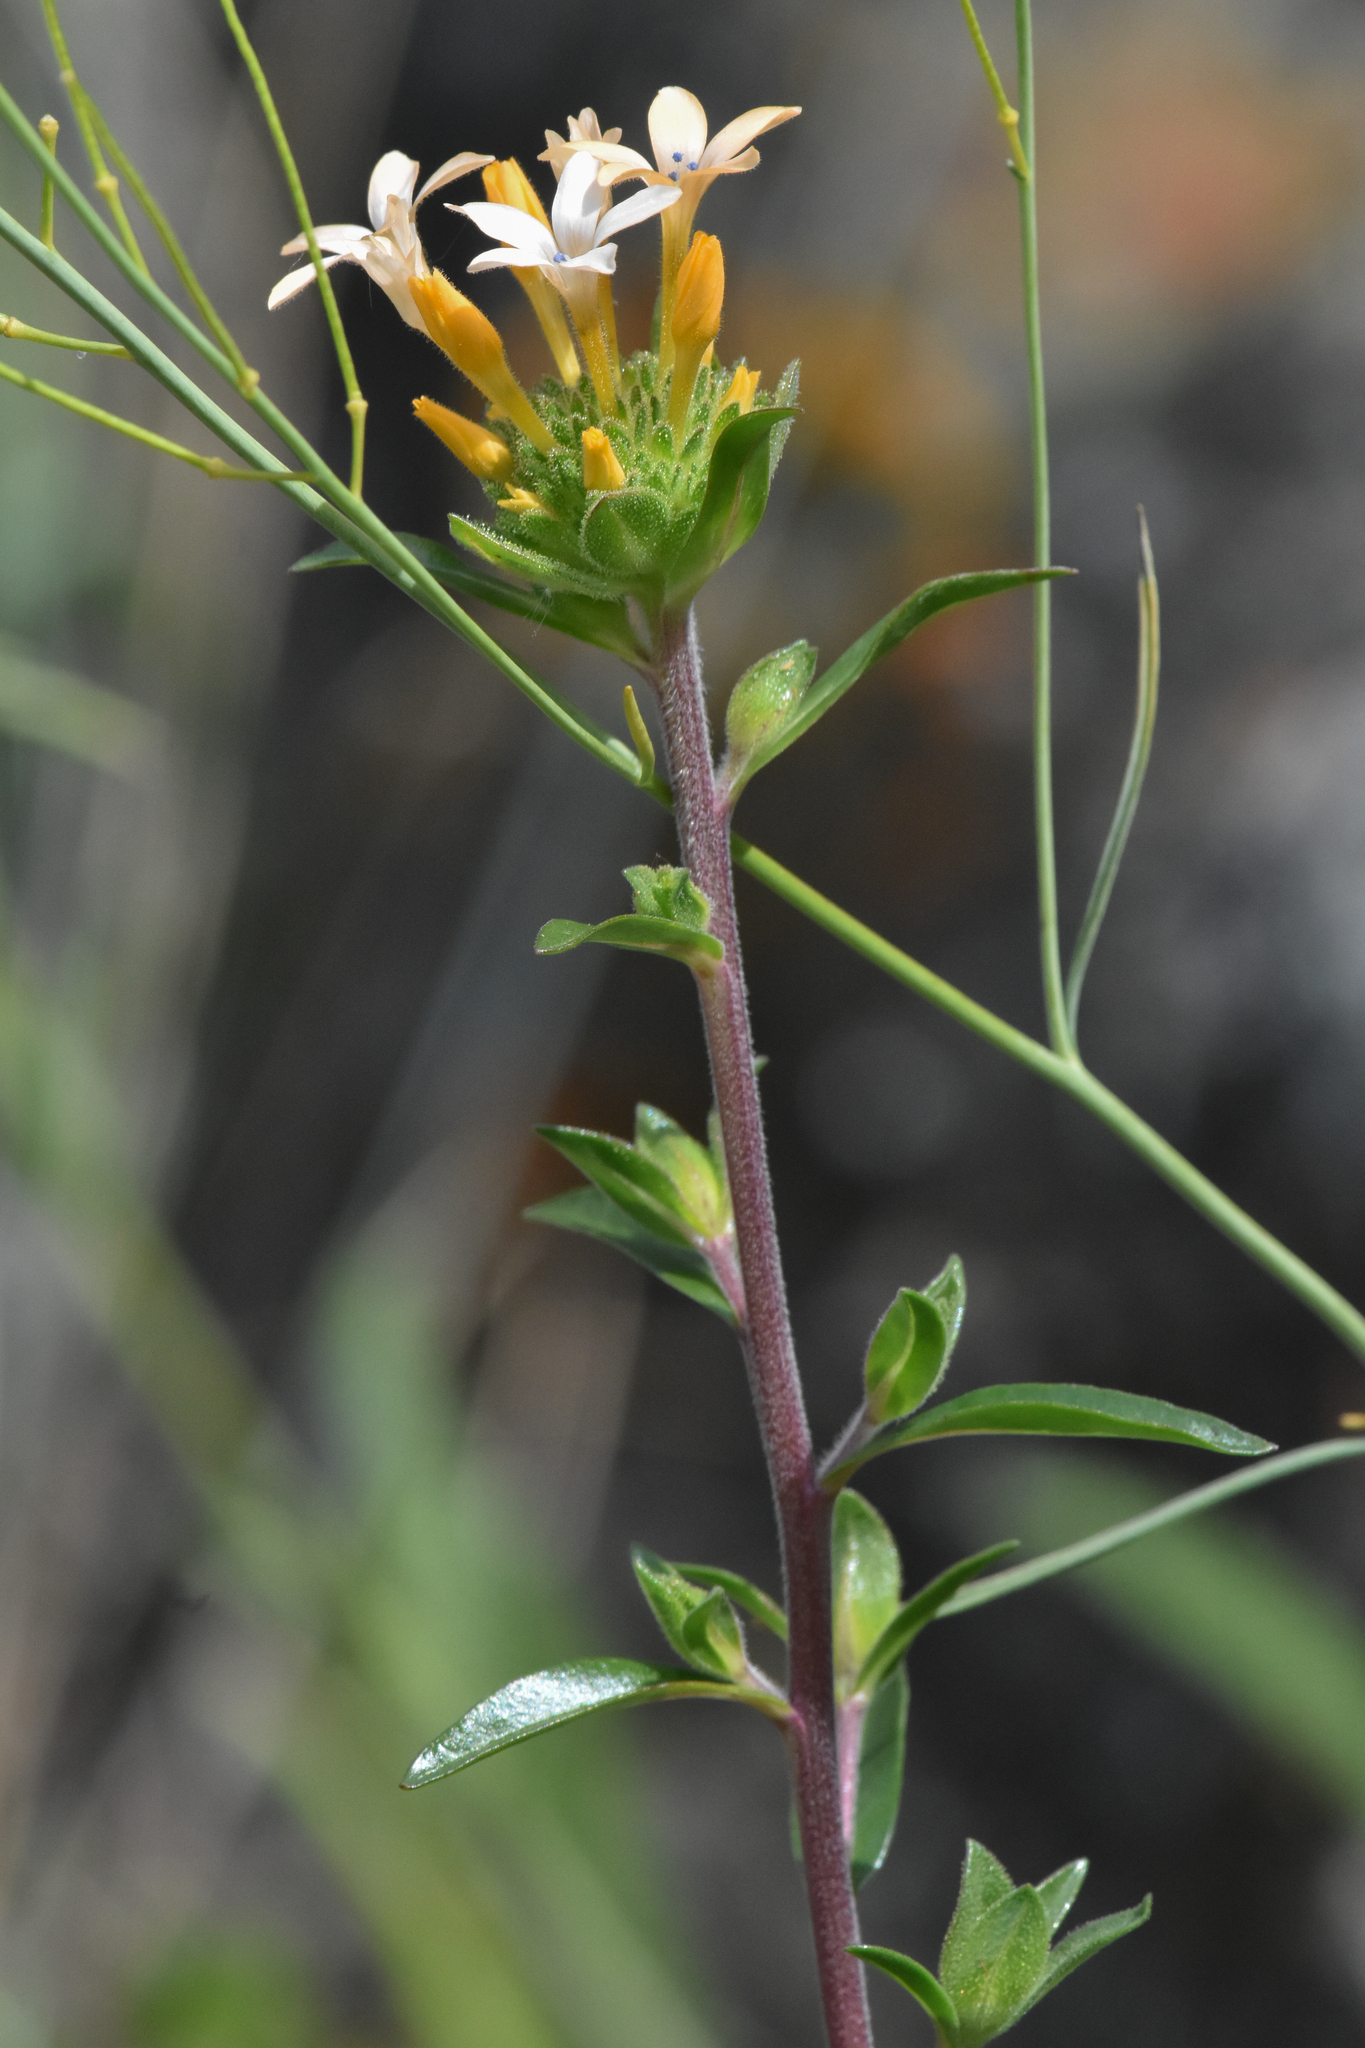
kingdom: Plantae
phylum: Tracheophyta
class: Magnoliopsida
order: Ericales
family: Polemoniaceae
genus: Collomia
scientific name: Collomia grandiflora
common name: California strawflower
